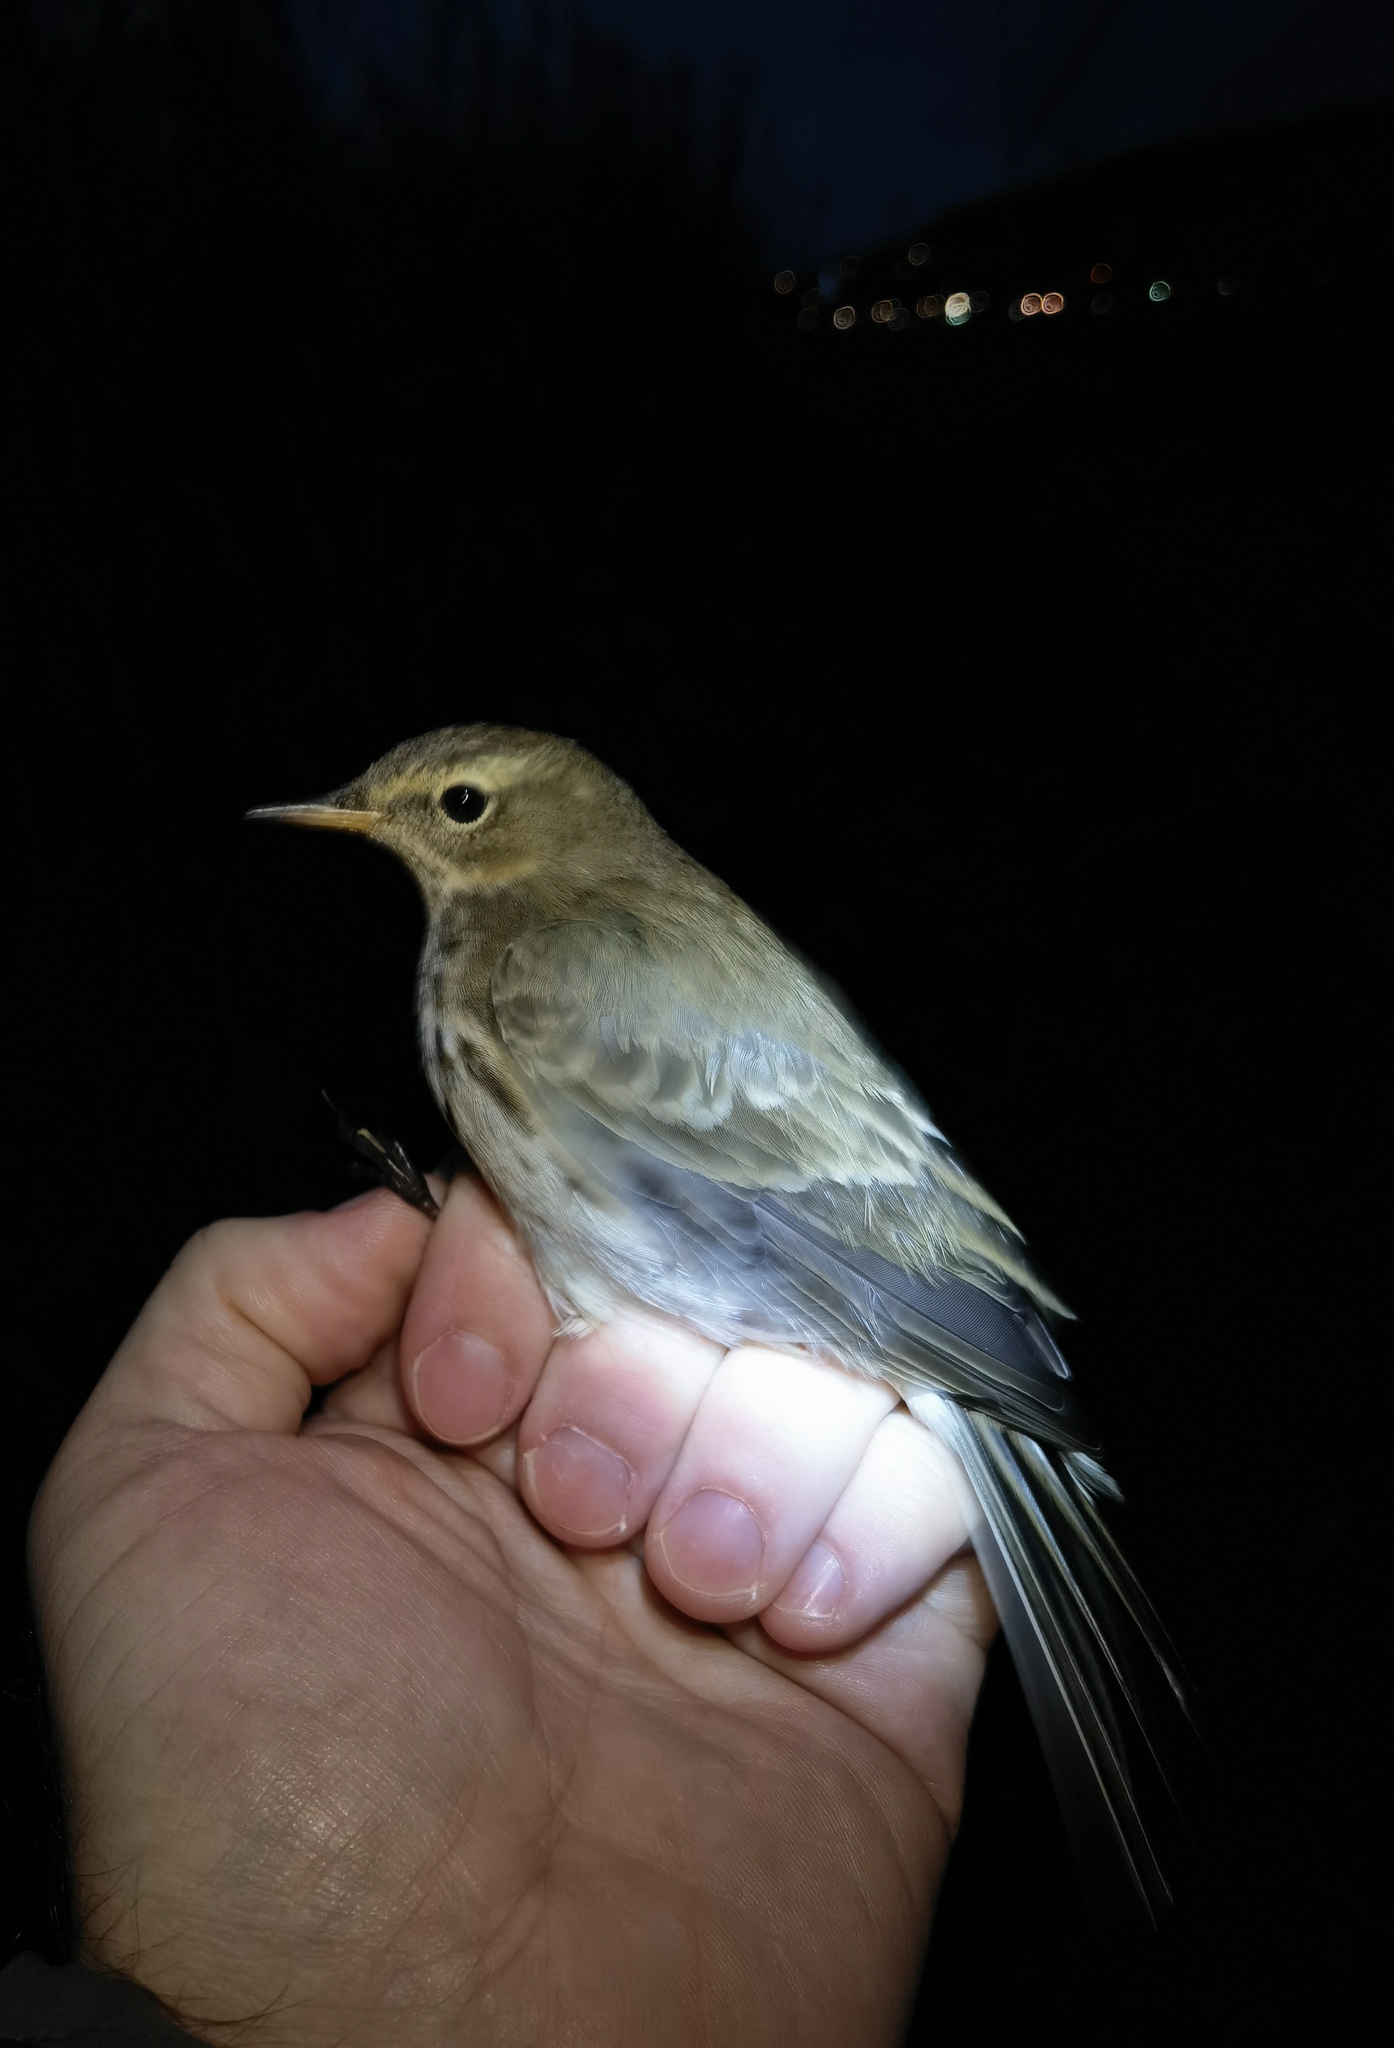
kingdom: Animalia
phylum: Chordata
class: Aves
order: Passeriformes
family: Motacillidae
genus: Anthus
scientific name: Anthus spinoletta
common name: Water pipit
